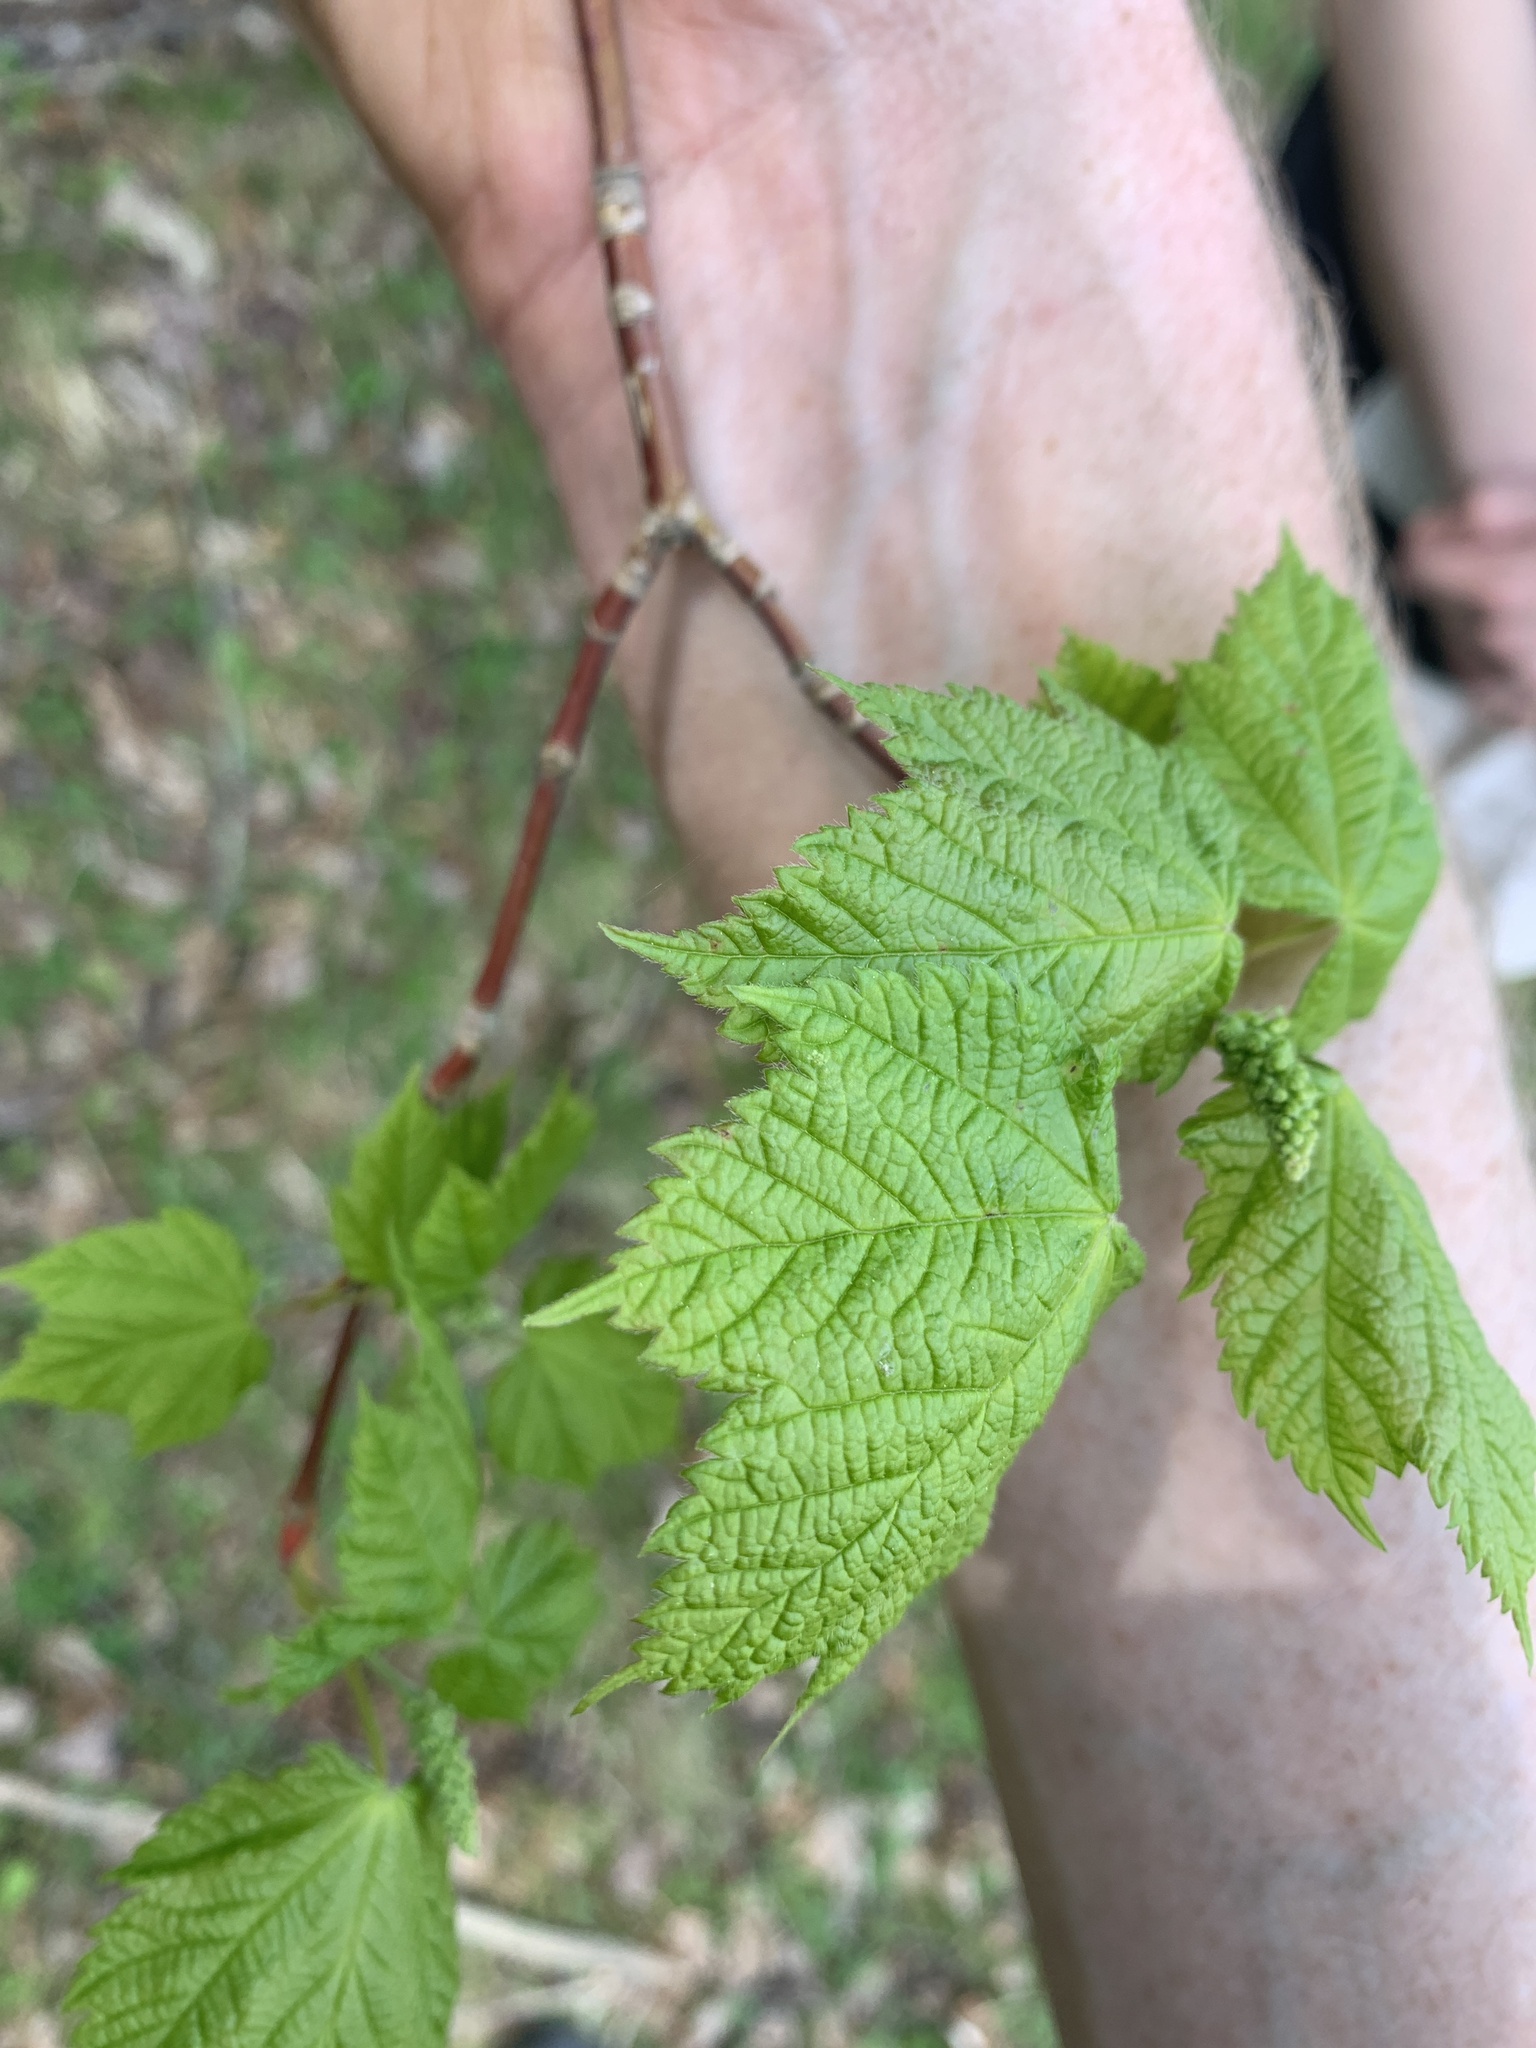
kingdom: Plantae
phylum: Tracheophyta
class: Magnoliopsida
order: Sapindales
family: Sapindaceae
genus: Acer
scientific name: Acer spicatum
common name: Mountain maple
